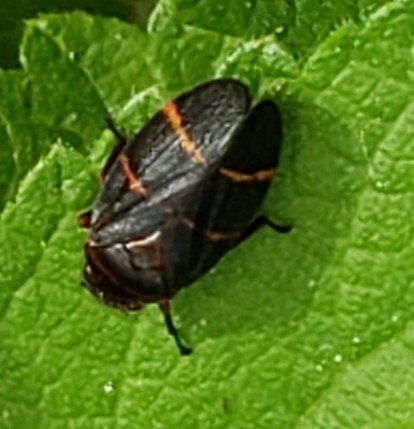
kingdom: Animalia
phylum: Arthropoda
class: Insecta
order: Hemiptera
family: Cercopidae
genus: Prosapia
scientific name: Prosapia bicincta
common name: Twolined spittlebug
